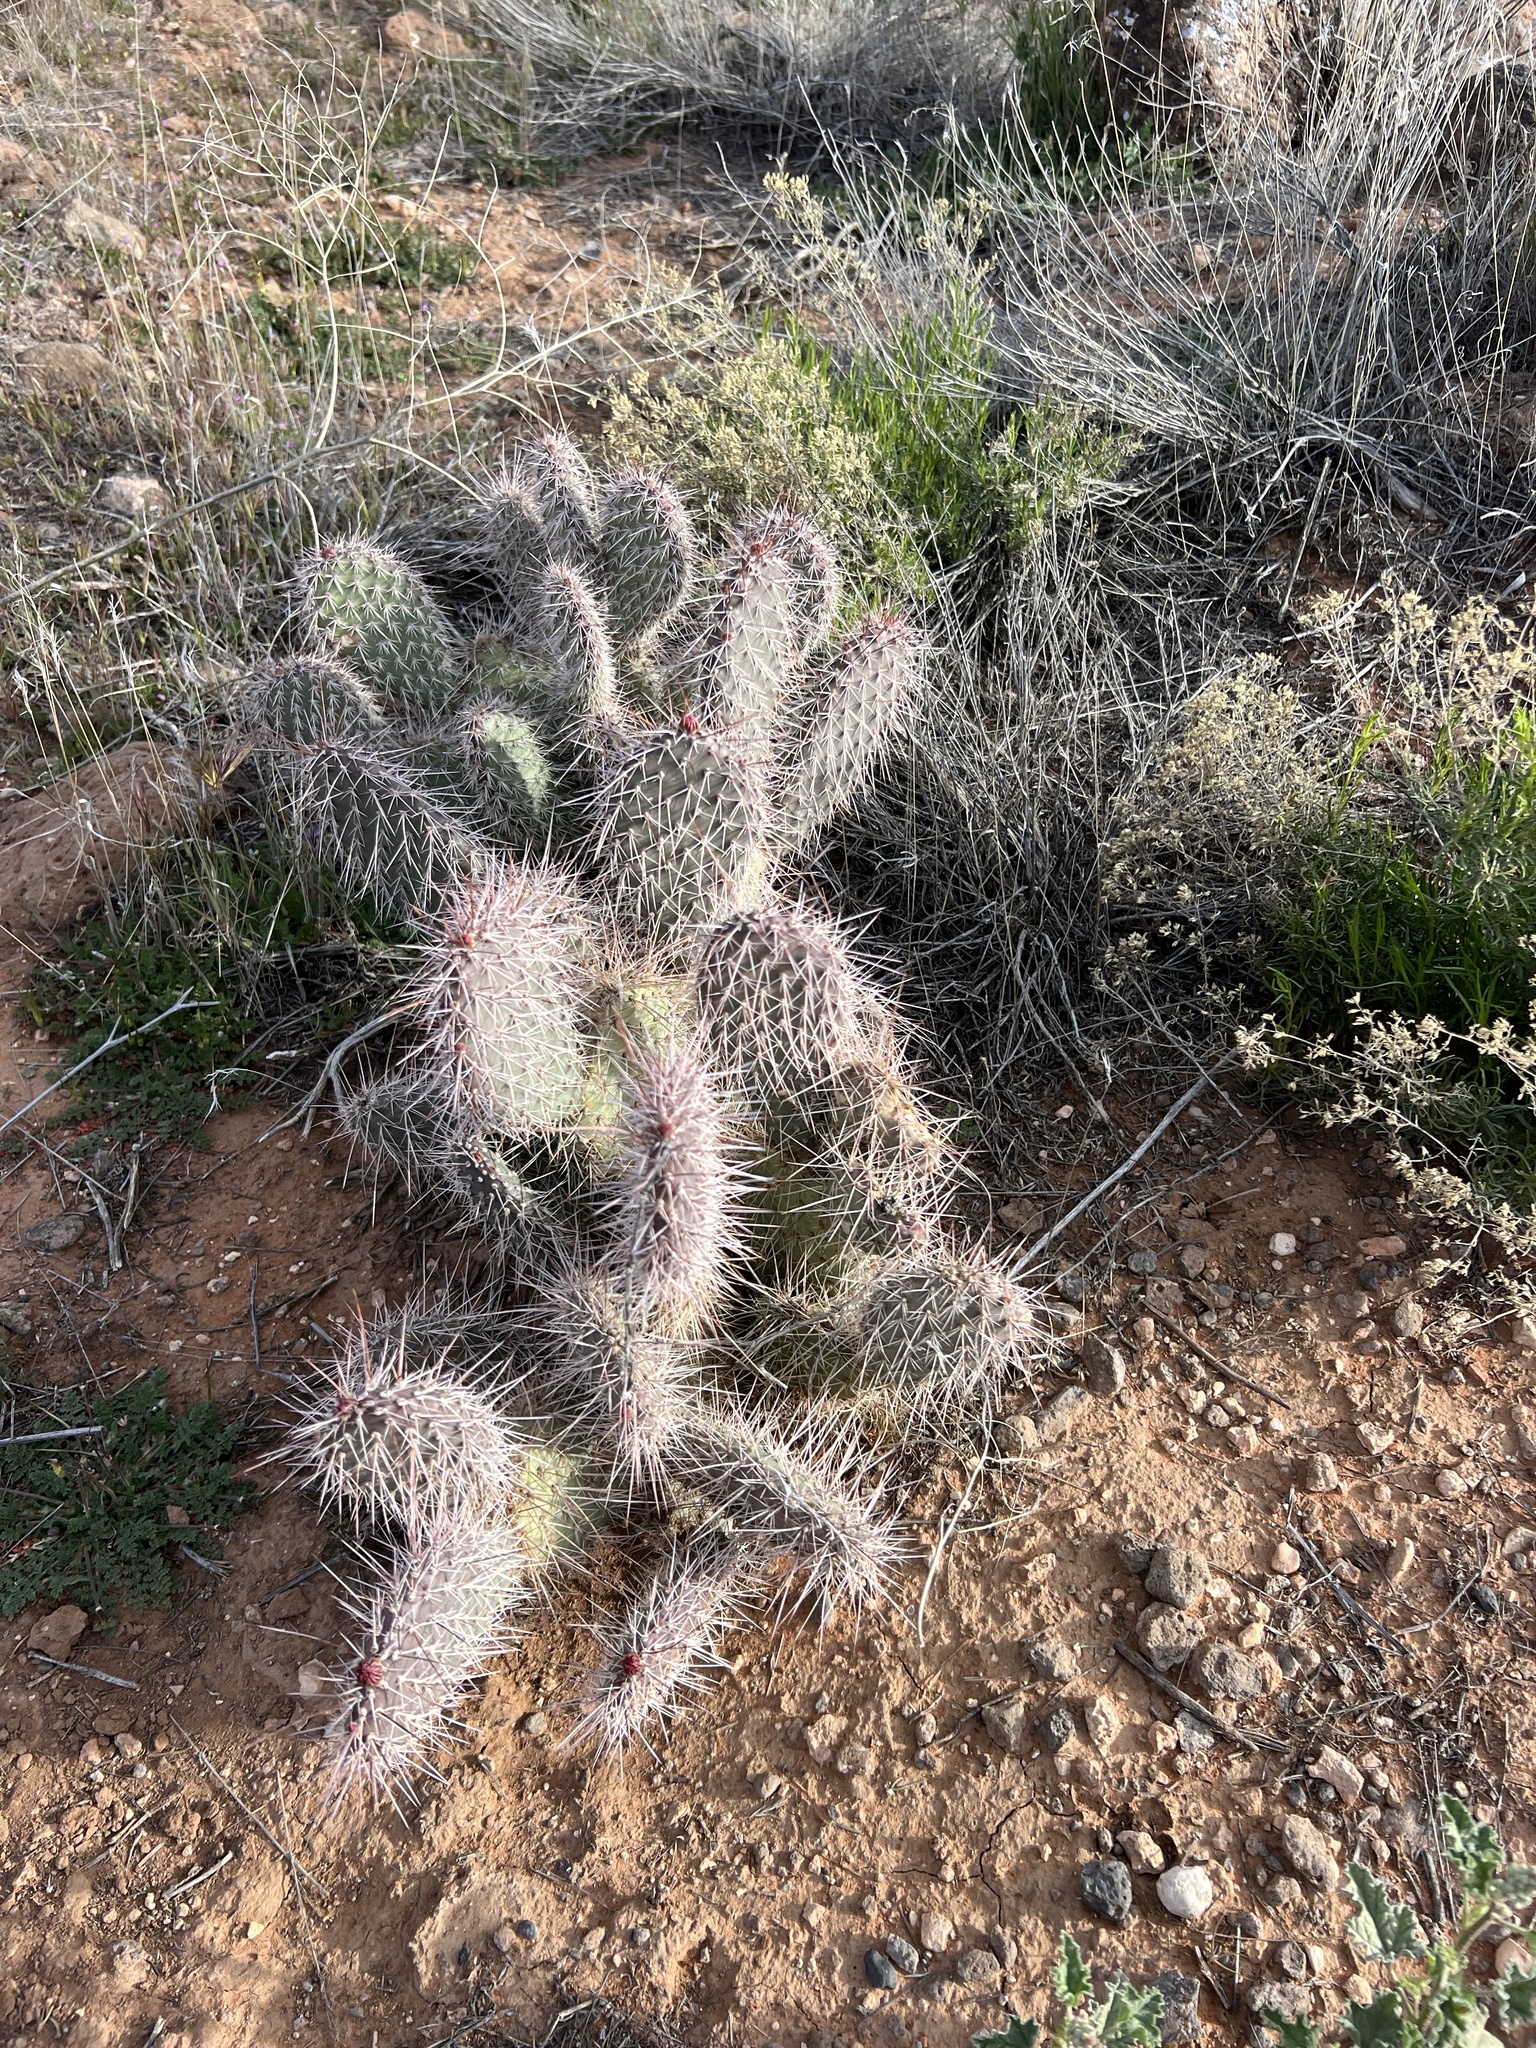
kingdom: Plantae
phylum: Tracheophyta
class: Magnoliopsida
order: Caryophyllales
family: Cactaceae
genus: Opuntia
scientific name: Opuntia polyacantha
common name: Plains prickly-pear
